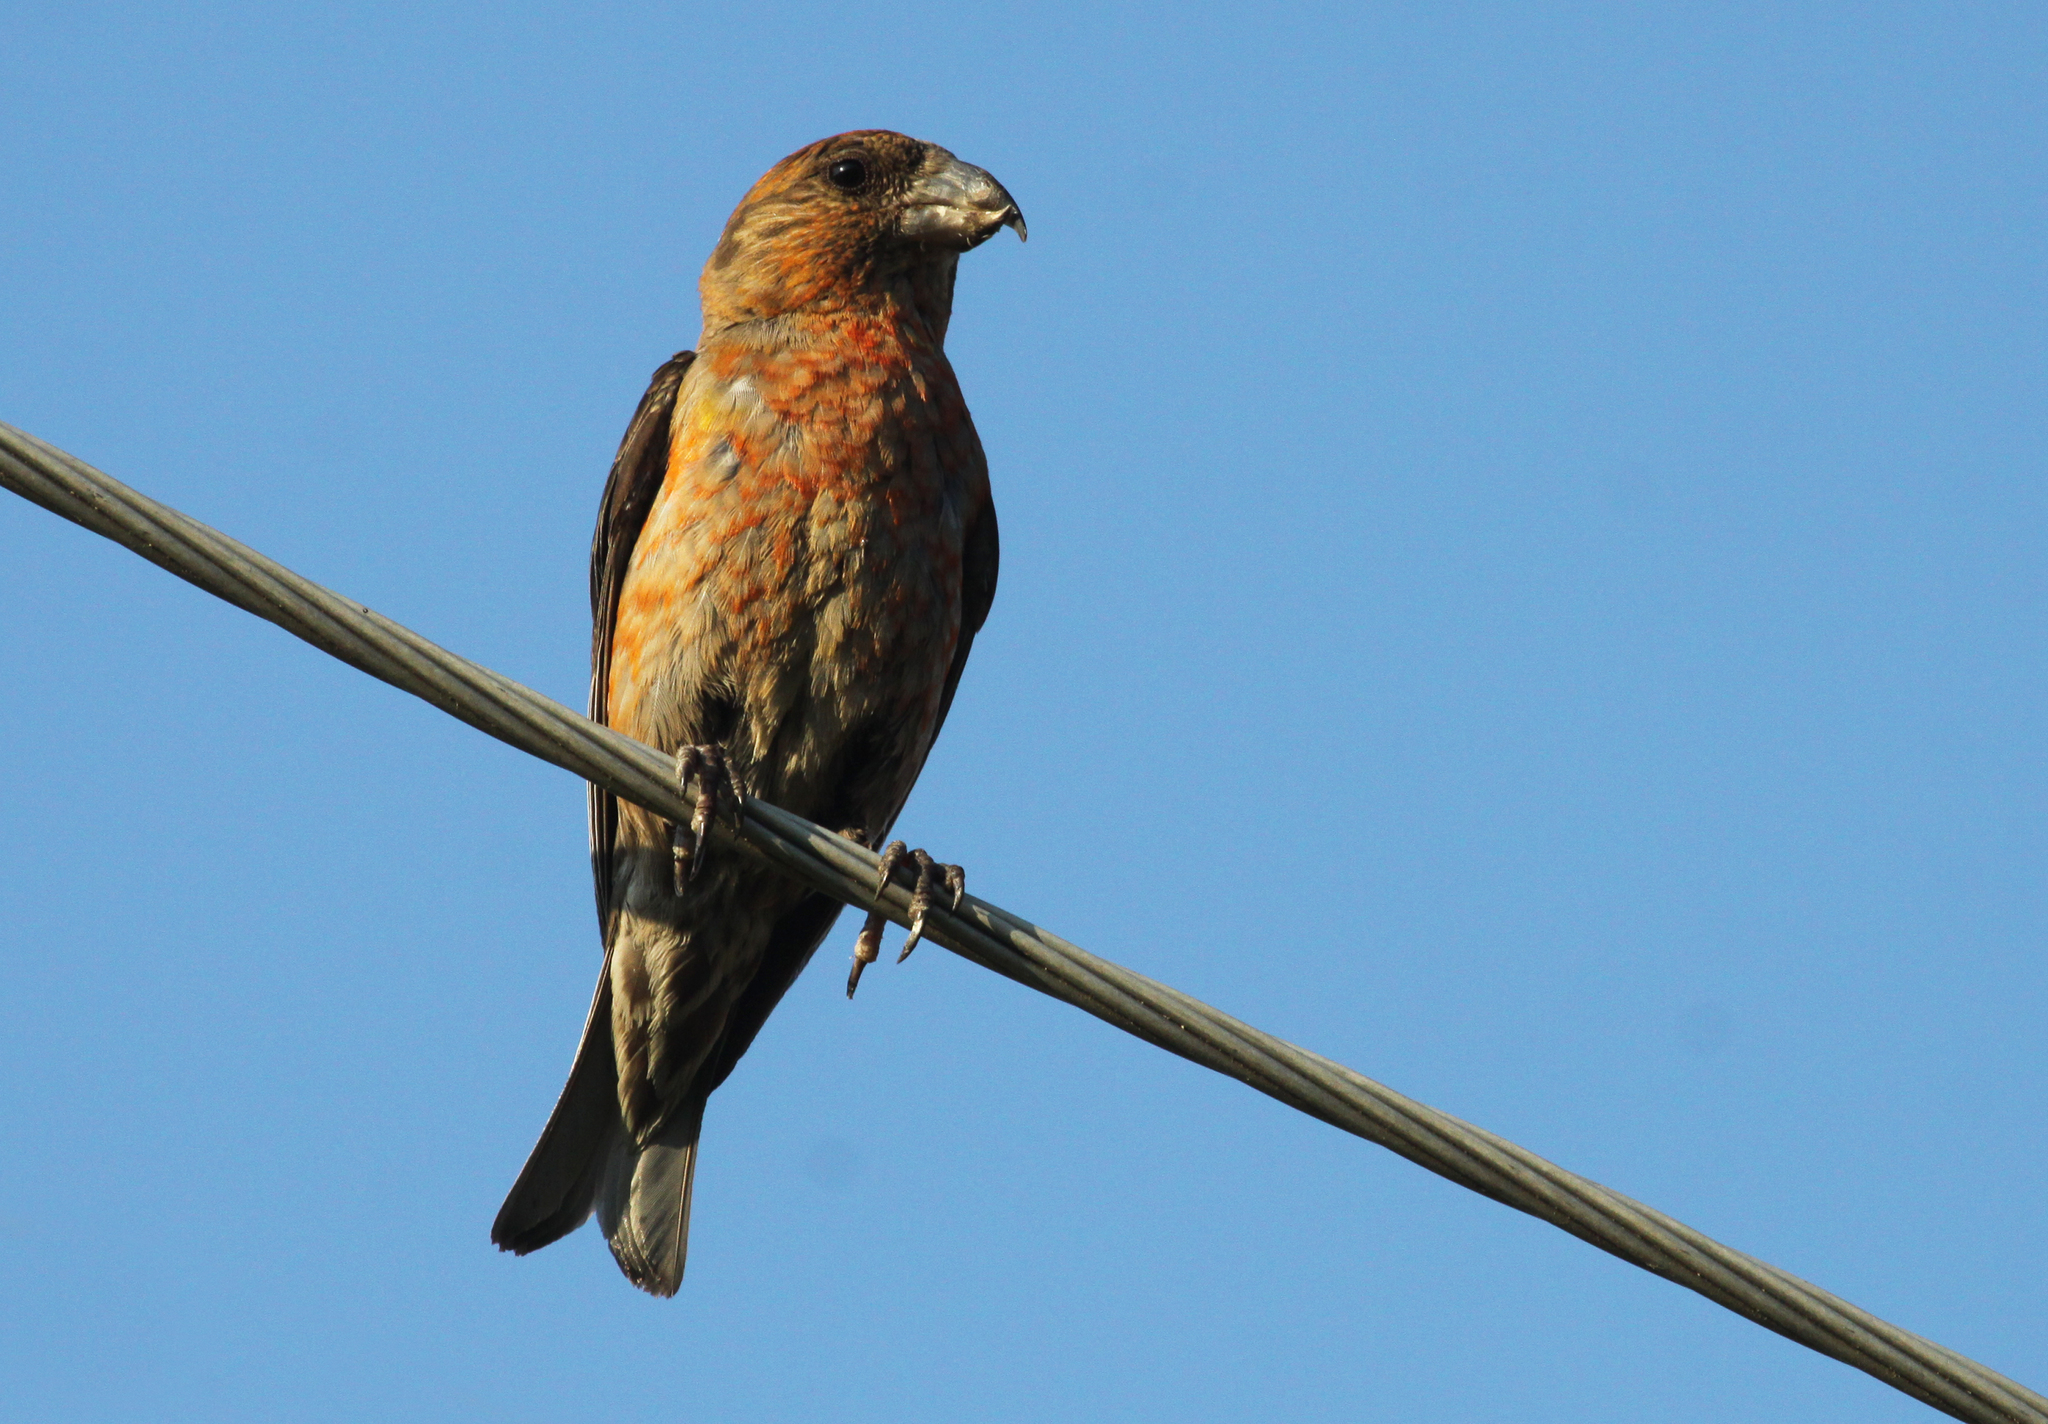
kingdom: Animalia
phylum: Chordata
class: Aves
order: Passeriformes
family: Fringillidae
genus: Loxia
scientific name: Loxia curvirostra
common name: Red crossbill
